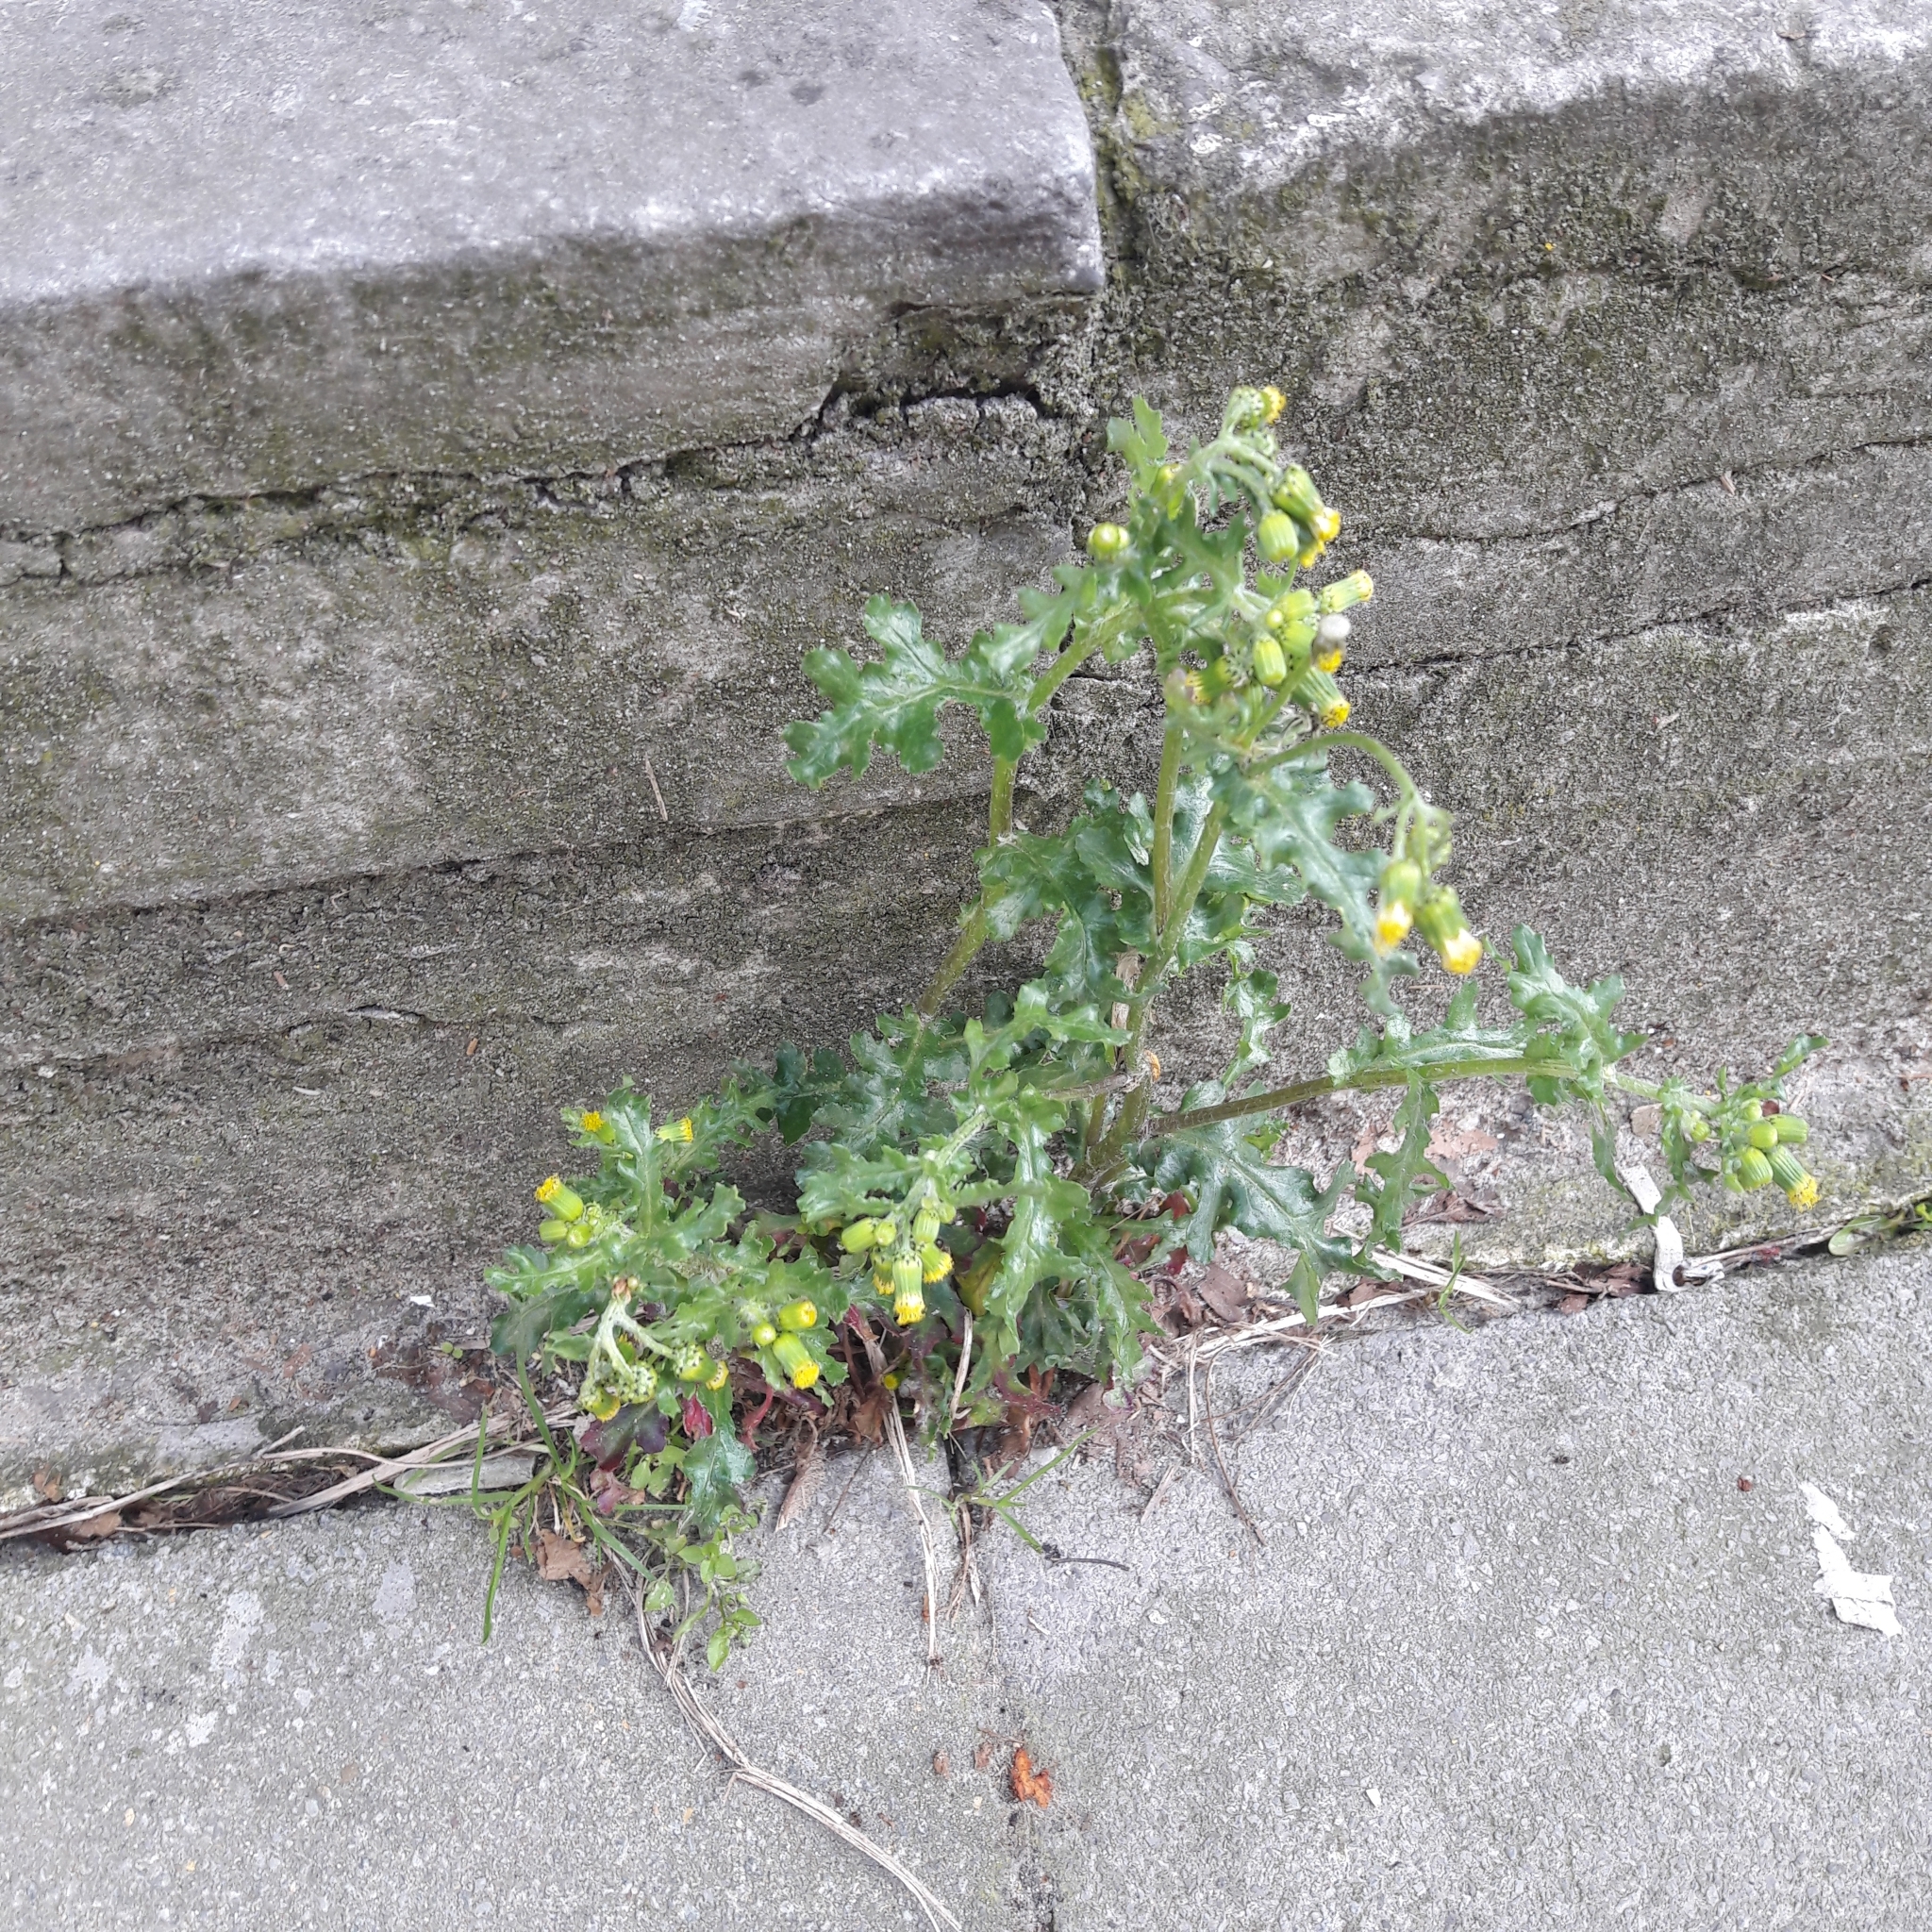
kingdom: Plantae
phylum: Tracheophyta
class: Magnoliopsida
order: Asterales
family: Asteraceae
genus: Senecio
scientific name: Senecio vulgaris
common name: Old-man-in-the-spring
